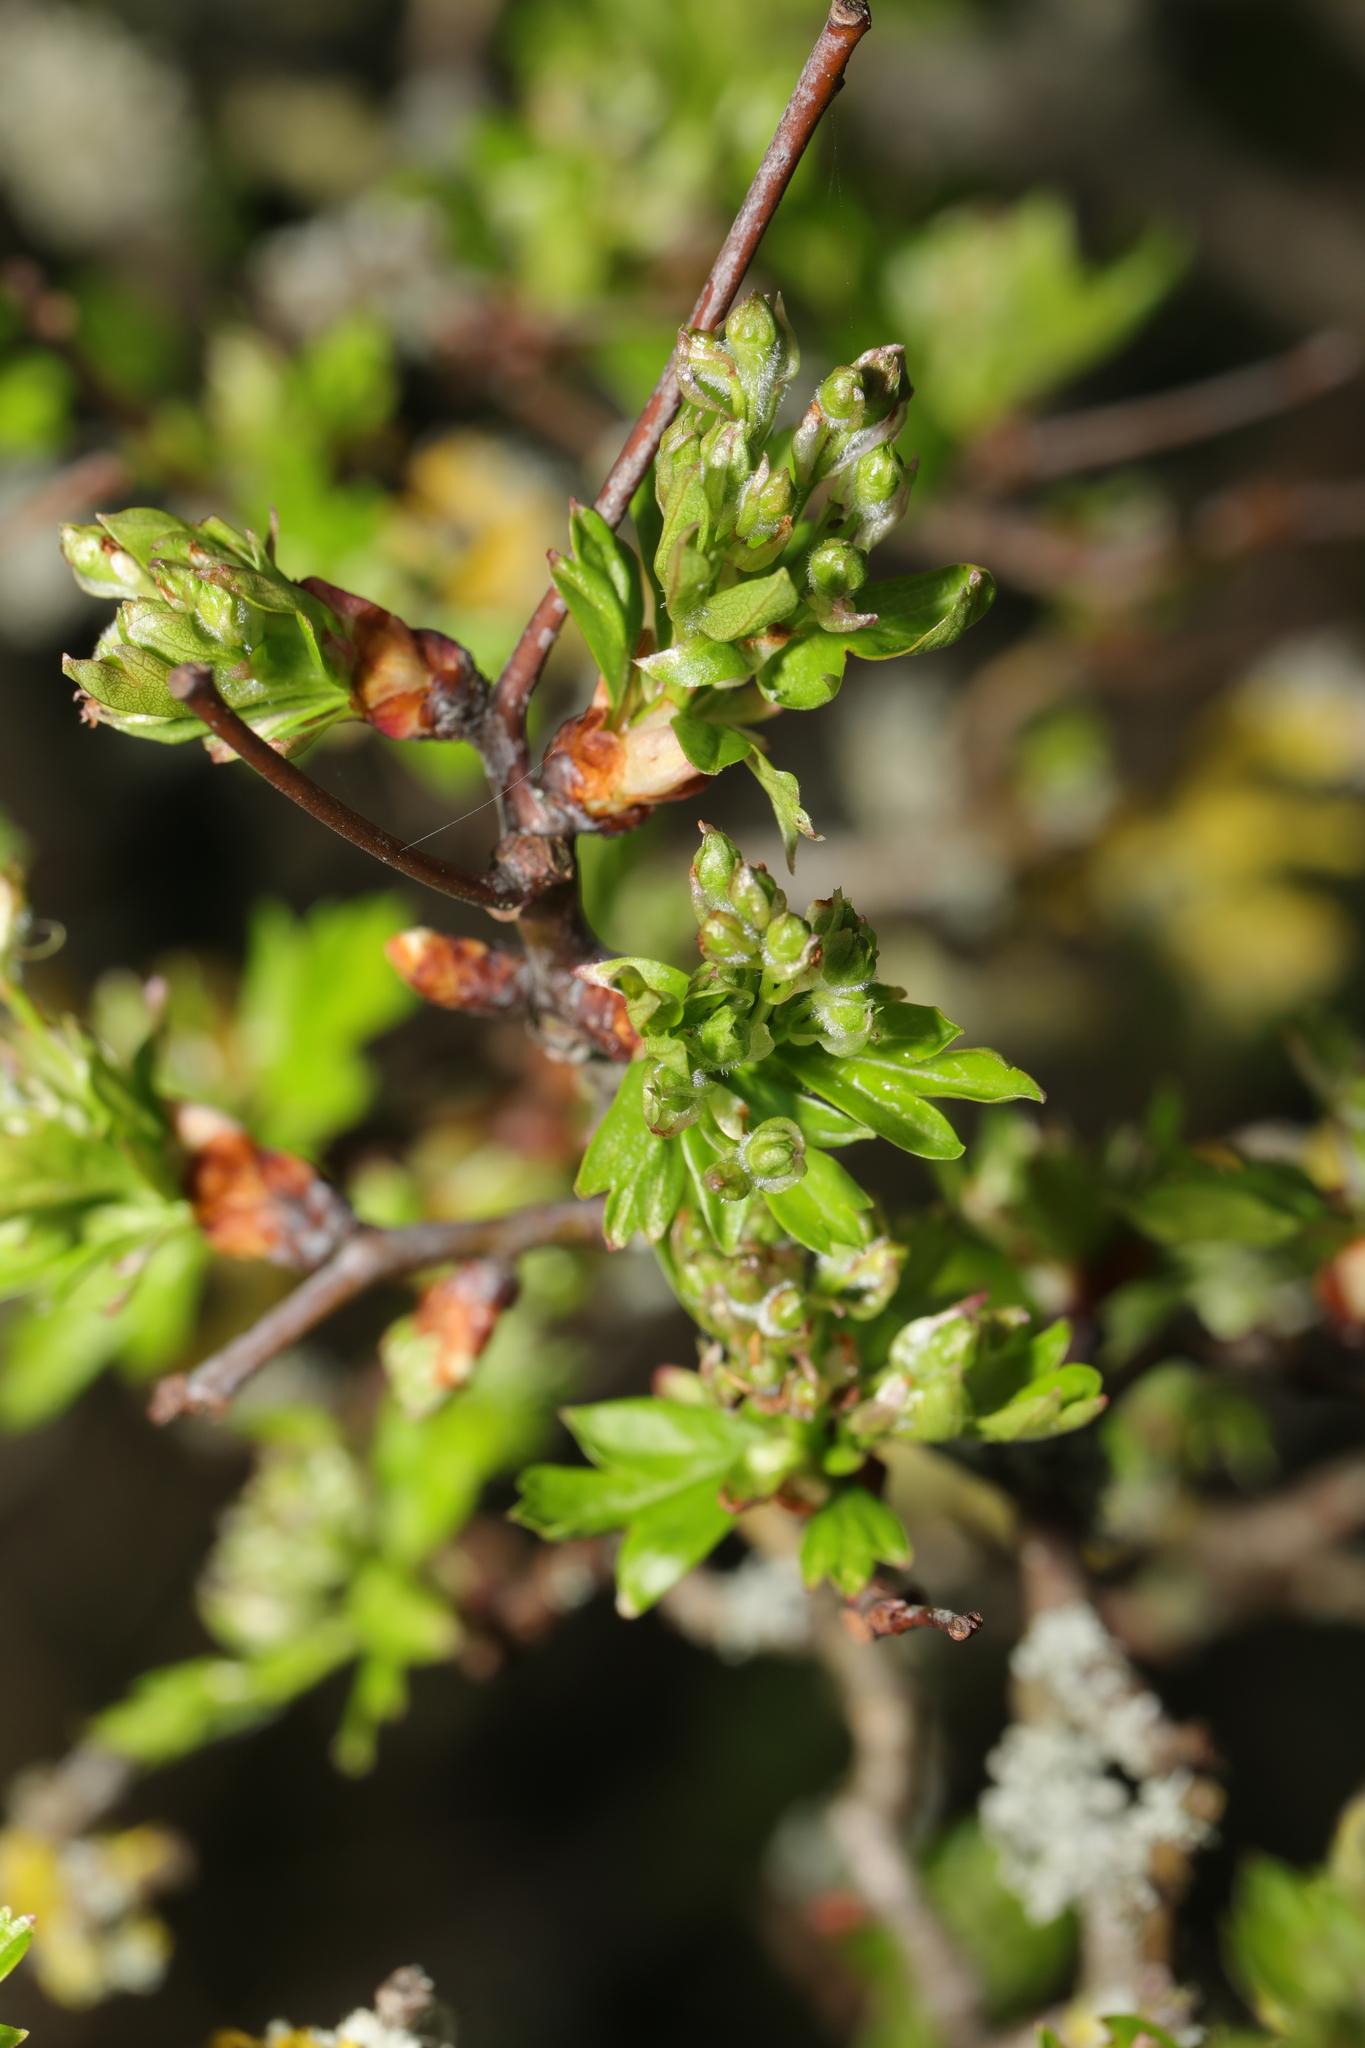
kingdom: Plantae
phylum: Tracheophyta
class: Magnoliopsida
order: Rosales
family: Rosaceae
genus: Crataegus
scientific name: Crataegus monogyna
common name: Hawthorn
